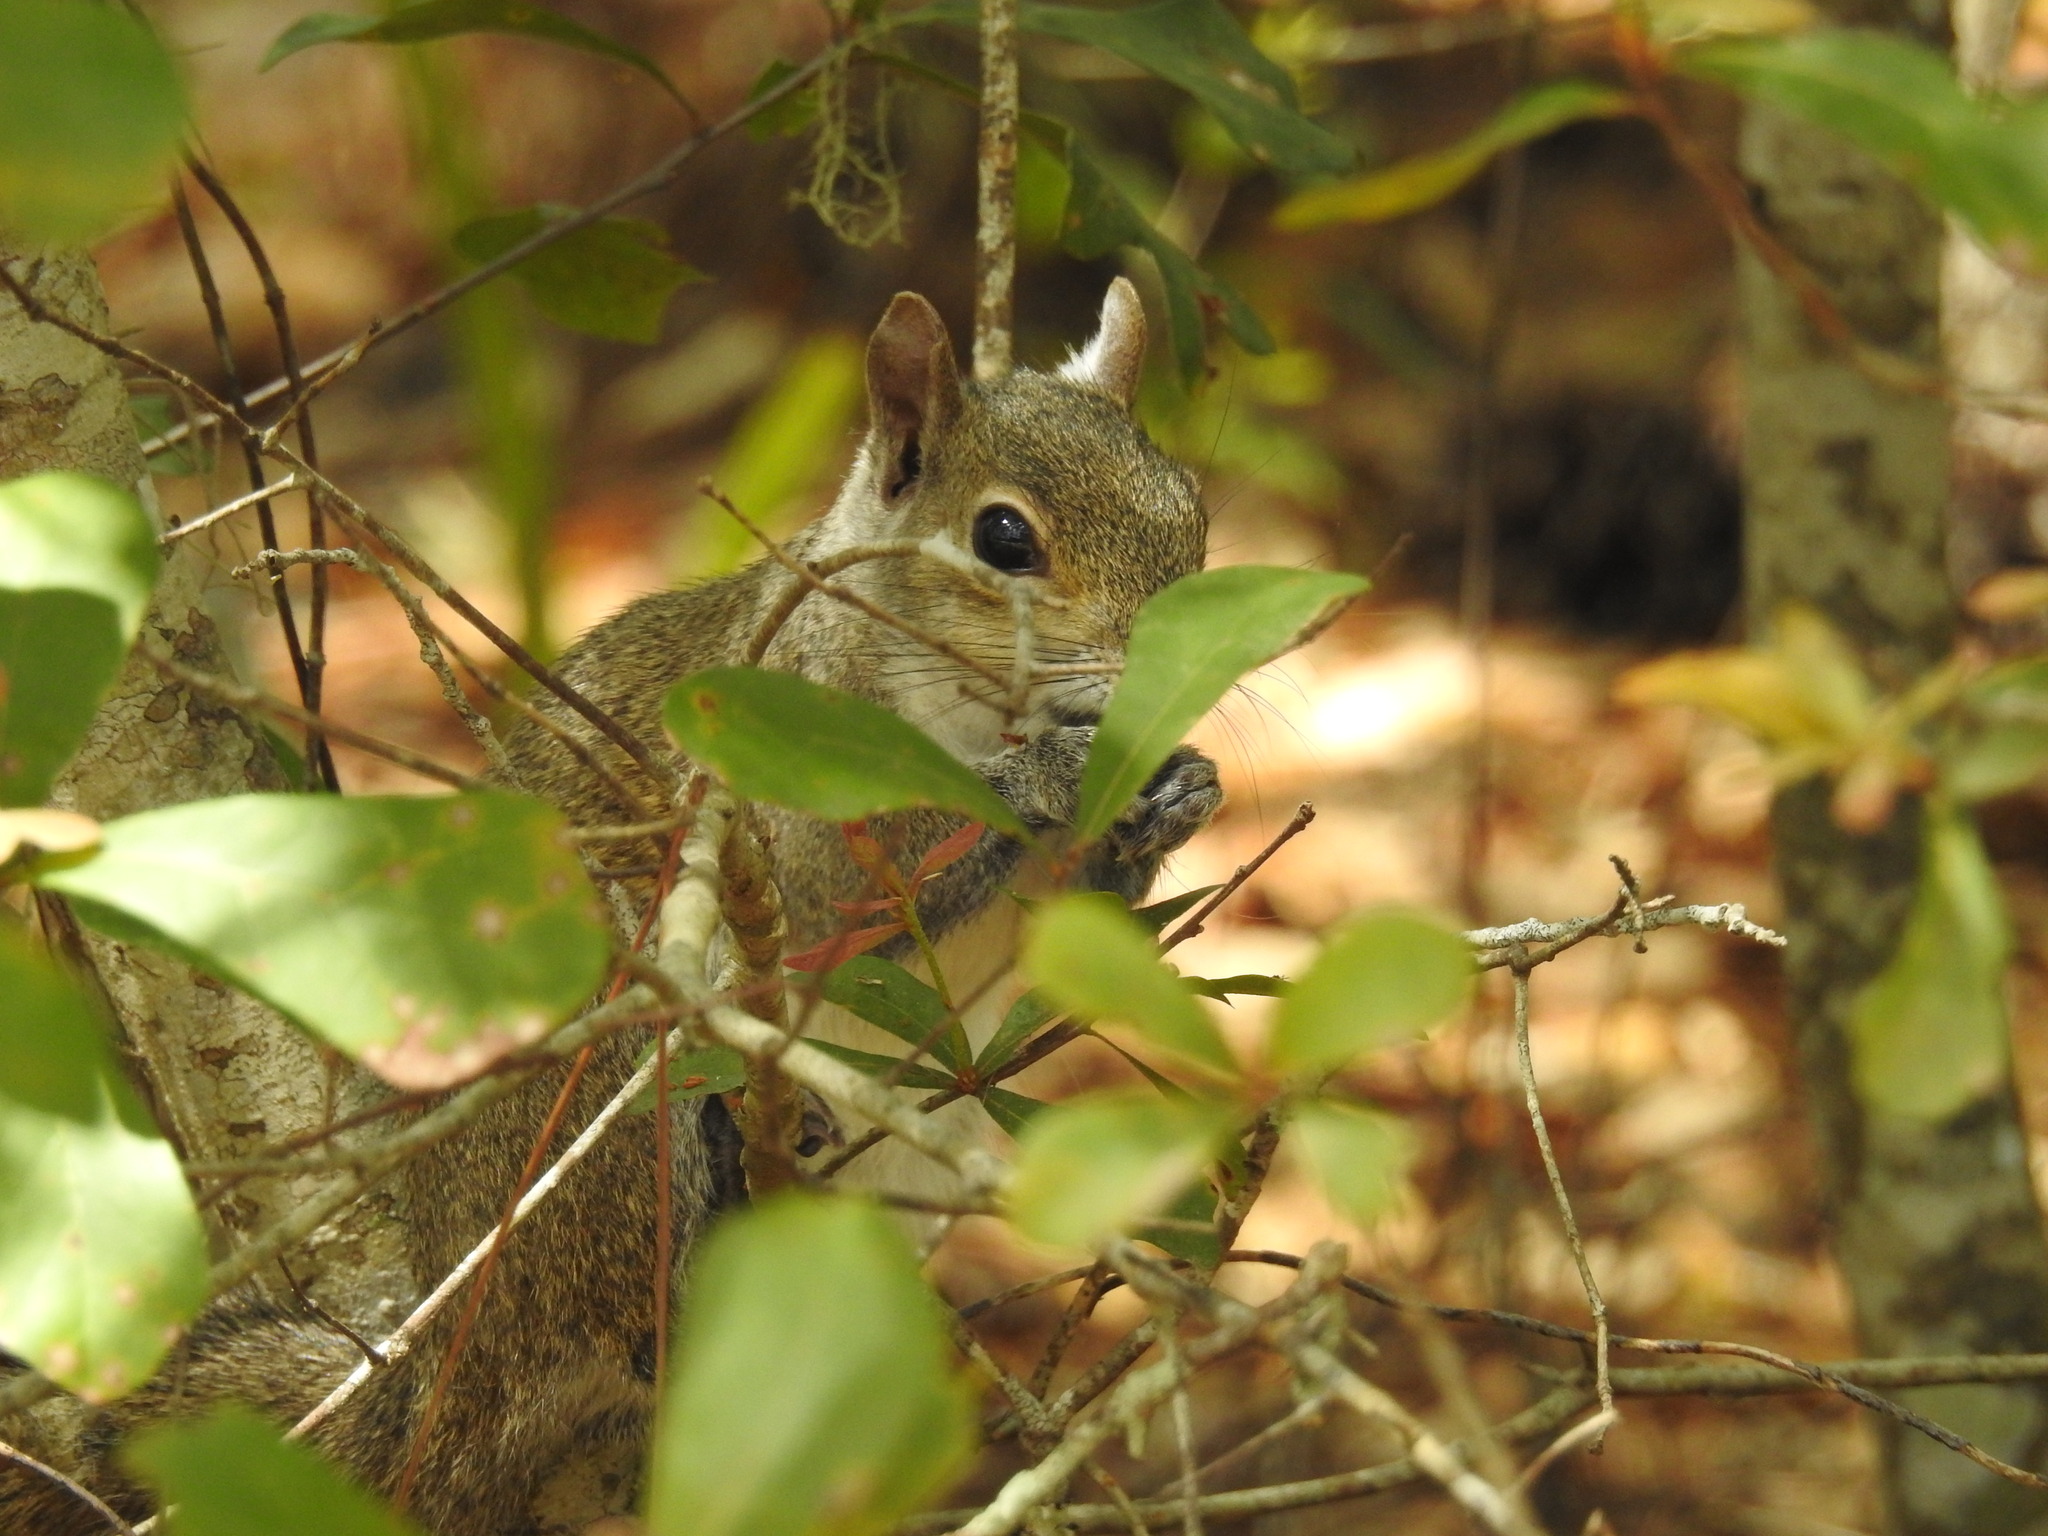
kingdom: Animalia
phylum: Chordata
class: Mammalia
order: Rodentia
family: Sciuridae
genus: Sciurus
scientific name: Sciurus carolinensis
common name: Eastern gray squirrel
